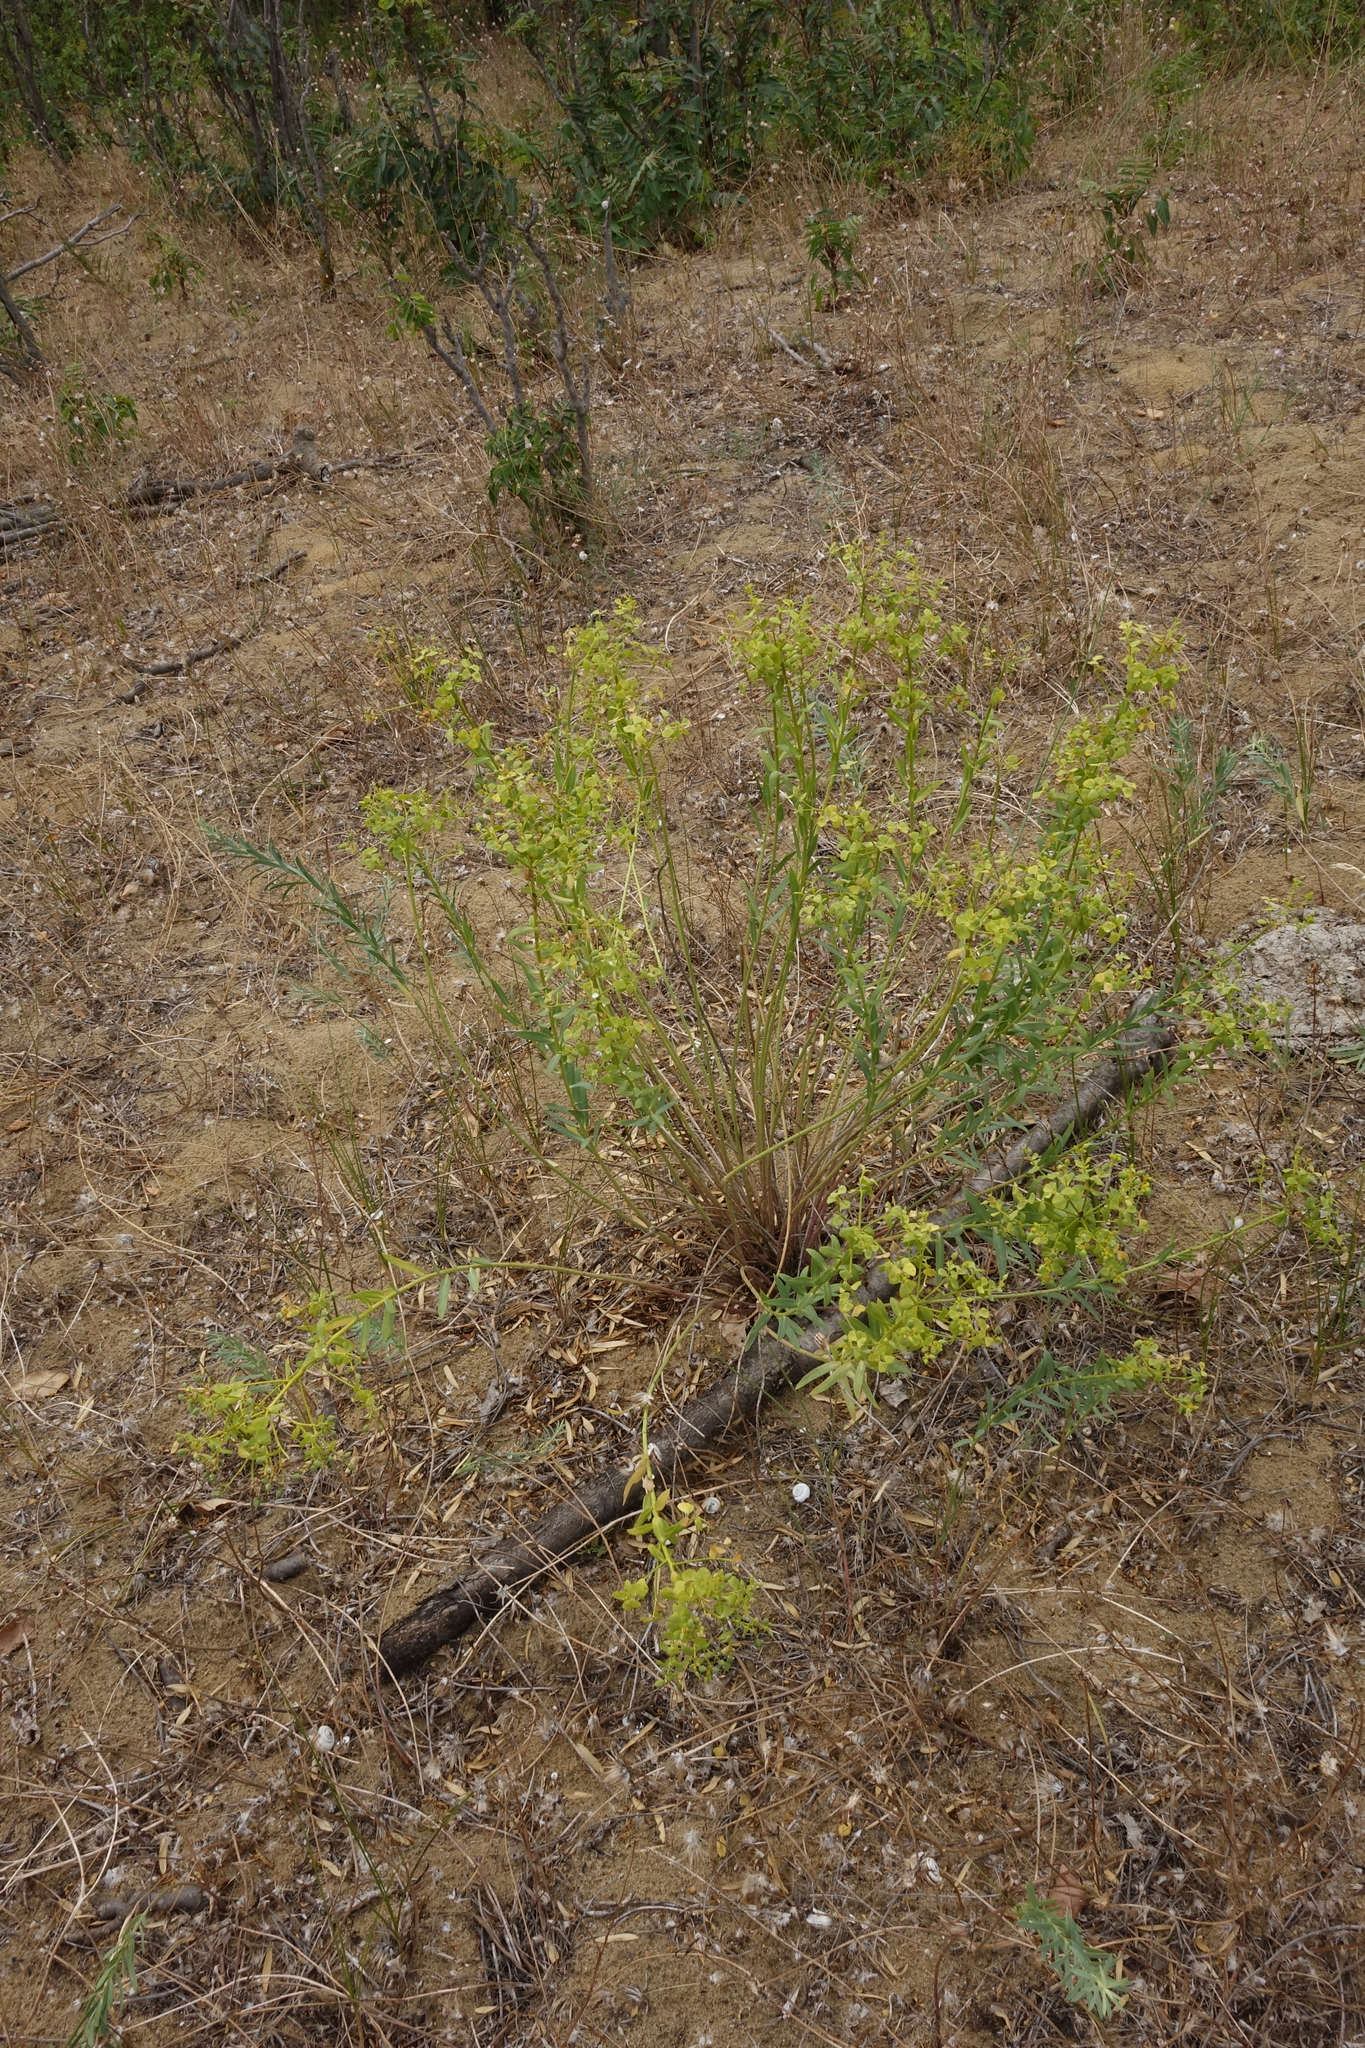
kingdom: Plantae
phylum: Tracheophyta
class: Magnoliopsida
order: Malpighiales
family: Euphorbiaceae
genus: Euphorbia
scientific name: Euphorbia seguieriana
